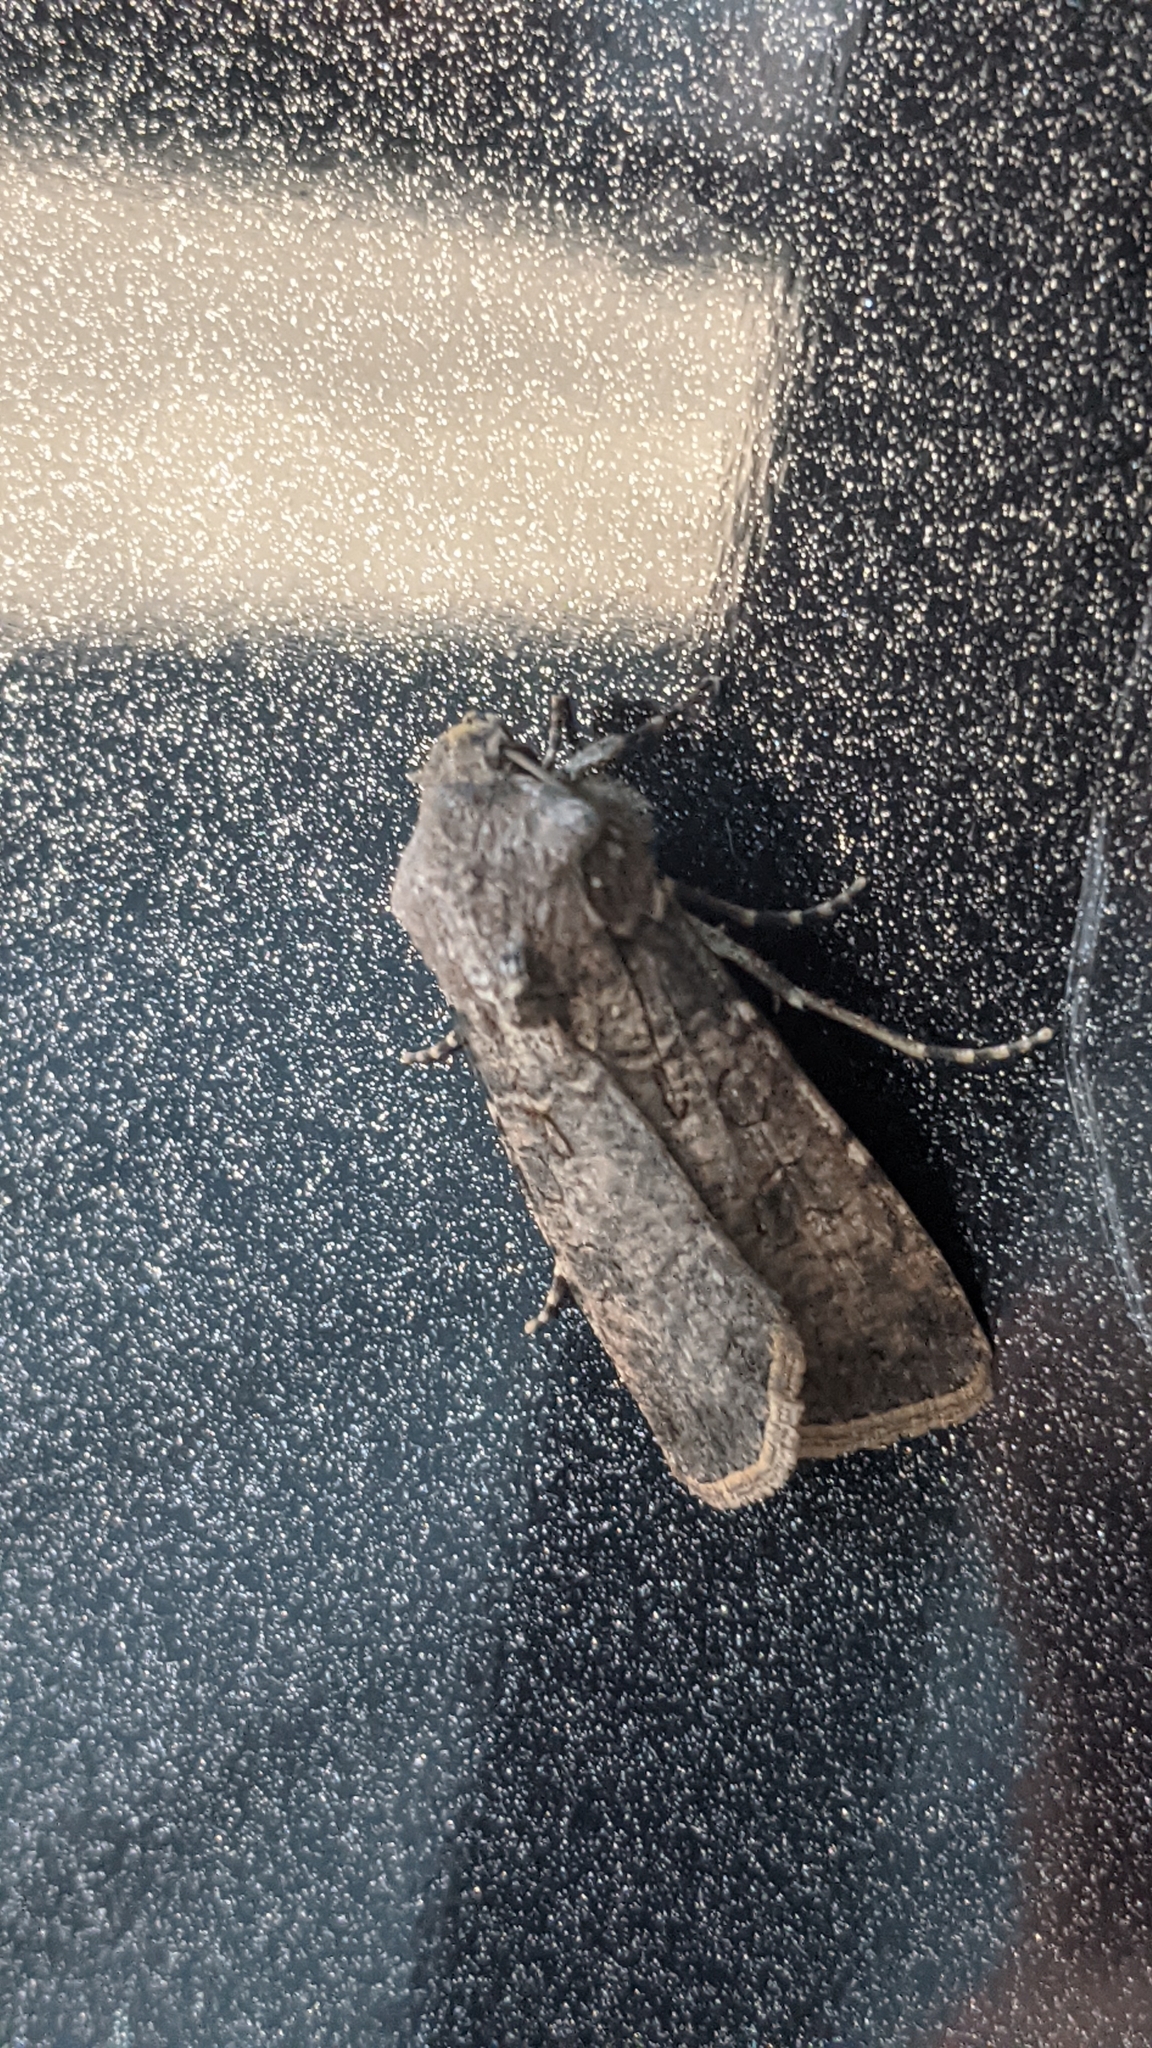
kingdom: Animalia
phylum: Arthropoda
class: Insecta
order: Lepidoptera
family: Noctuidae
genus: Agrotis
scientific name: Agrotis segetum
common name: Turnip moth
